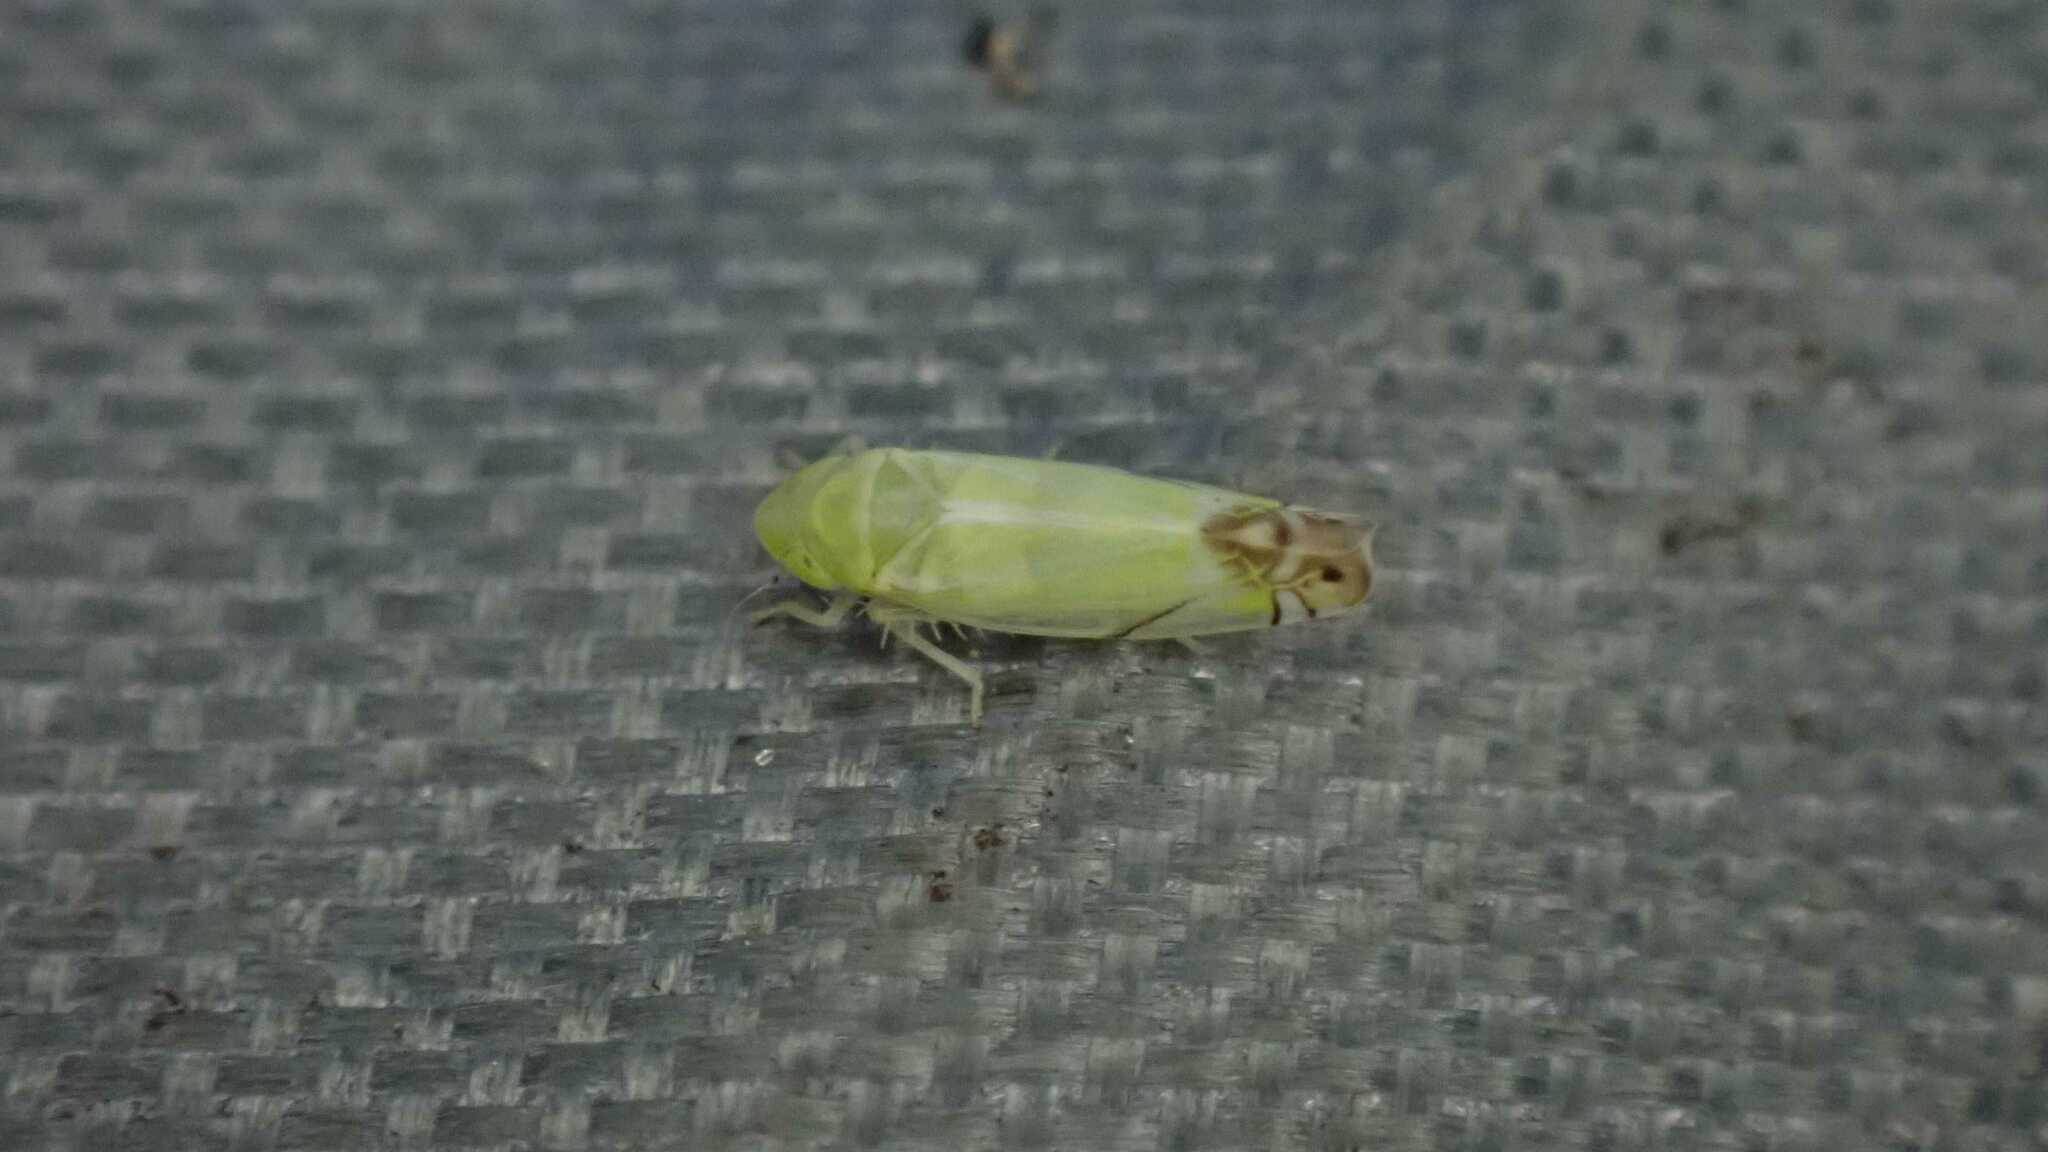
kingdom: Animalia
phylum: Arthropoda
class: Insecta
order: Hemiptera
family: Cicadellidae
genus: Zyginella
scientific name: Zyginella pulchra
